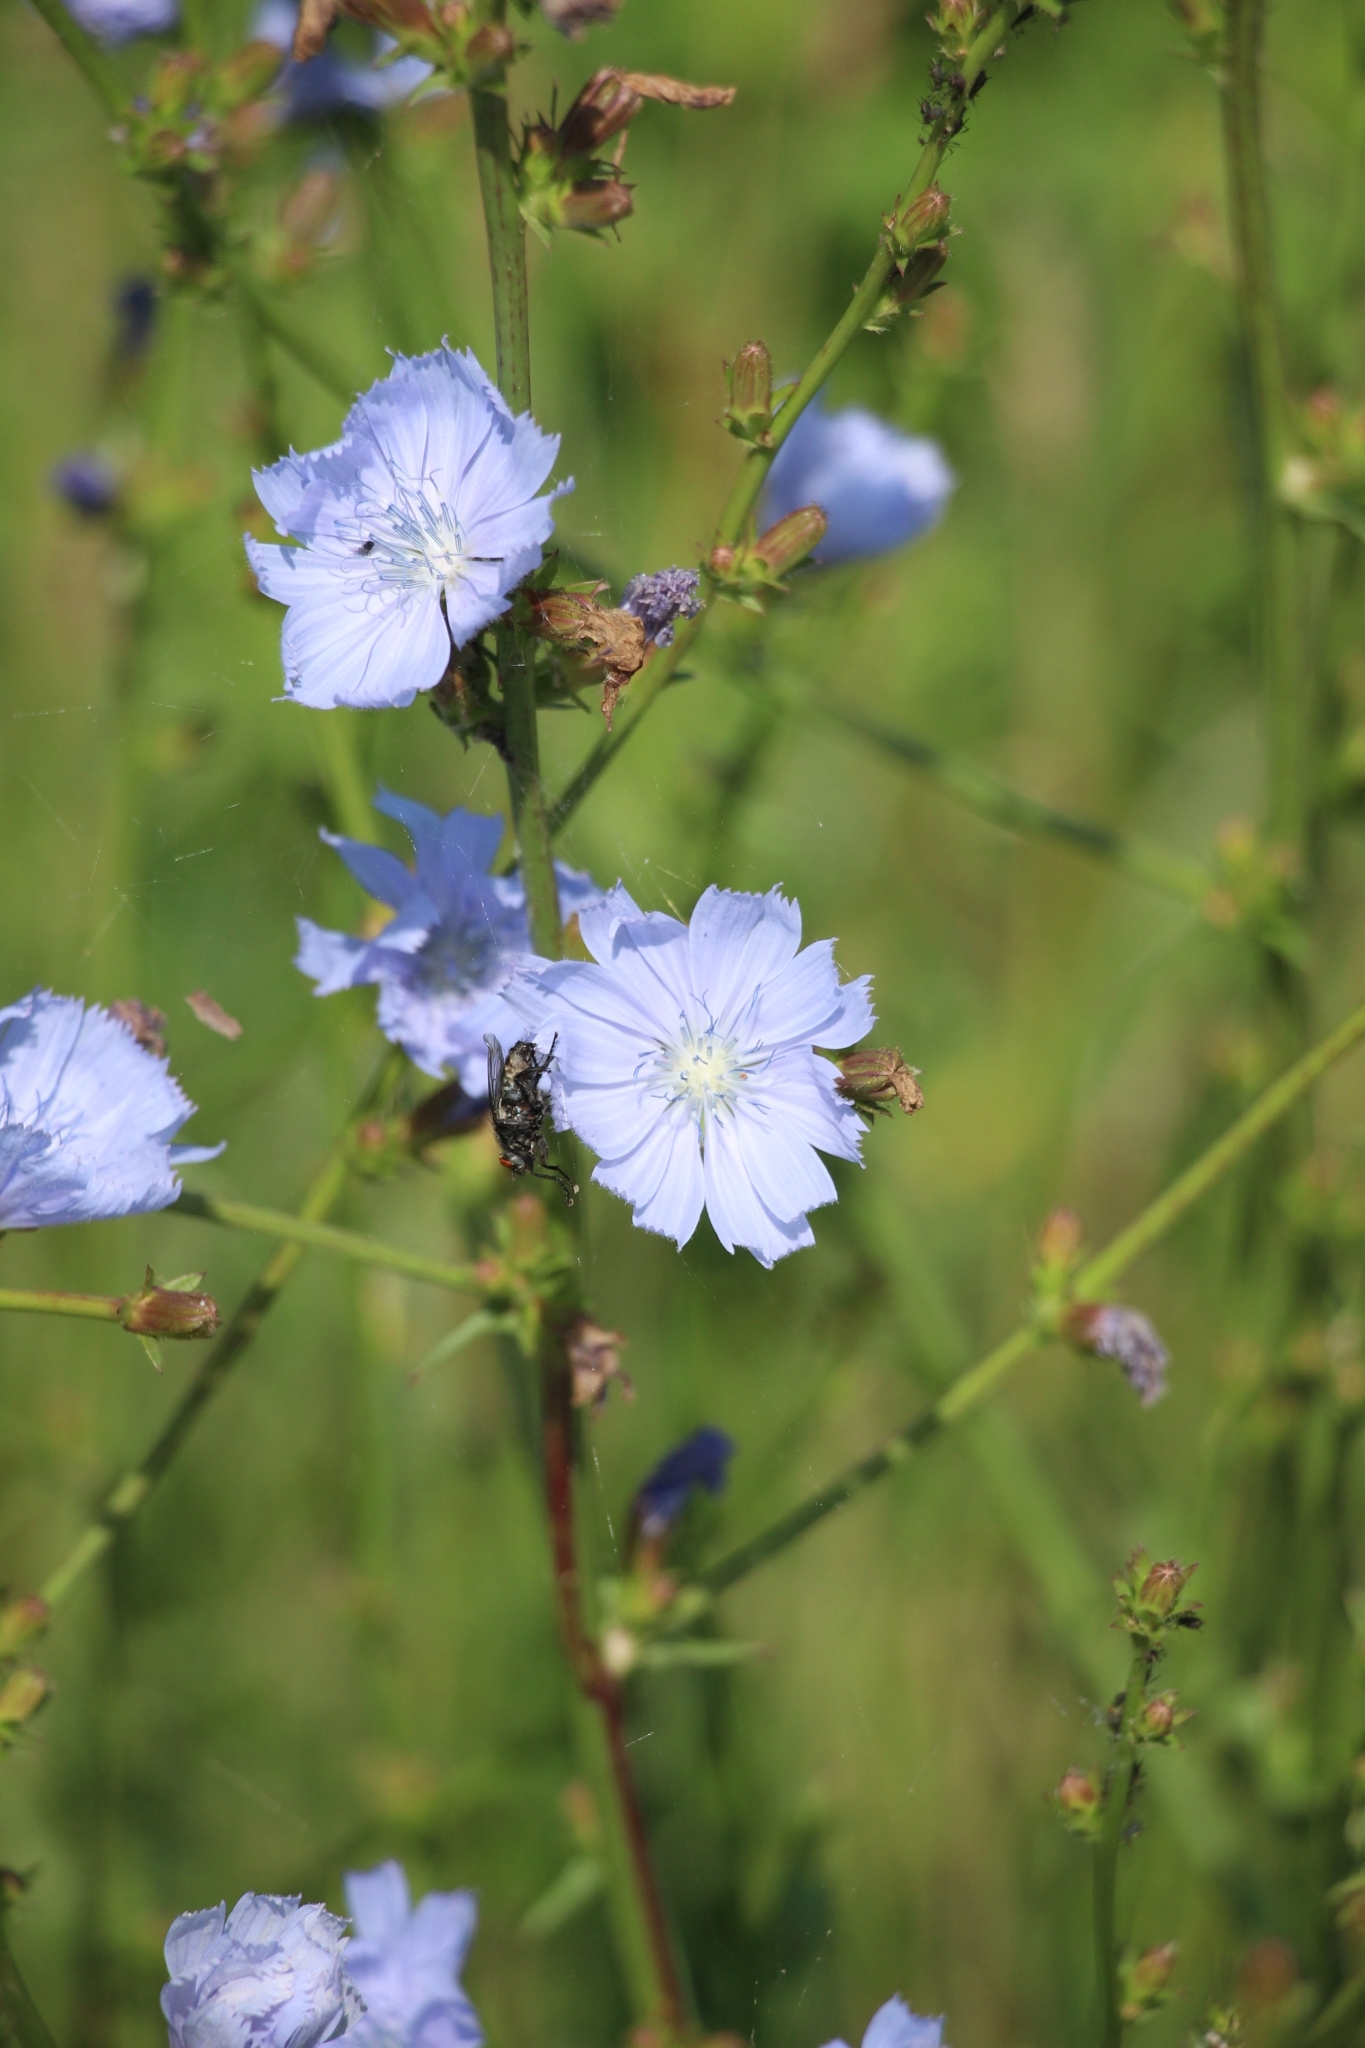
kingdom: Plantae
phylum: Tracheophyta
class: Magnoliopsida
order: Asterales
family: Asteraceae
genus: Cichorium
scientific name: Cichorium intybus
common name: Chicory
